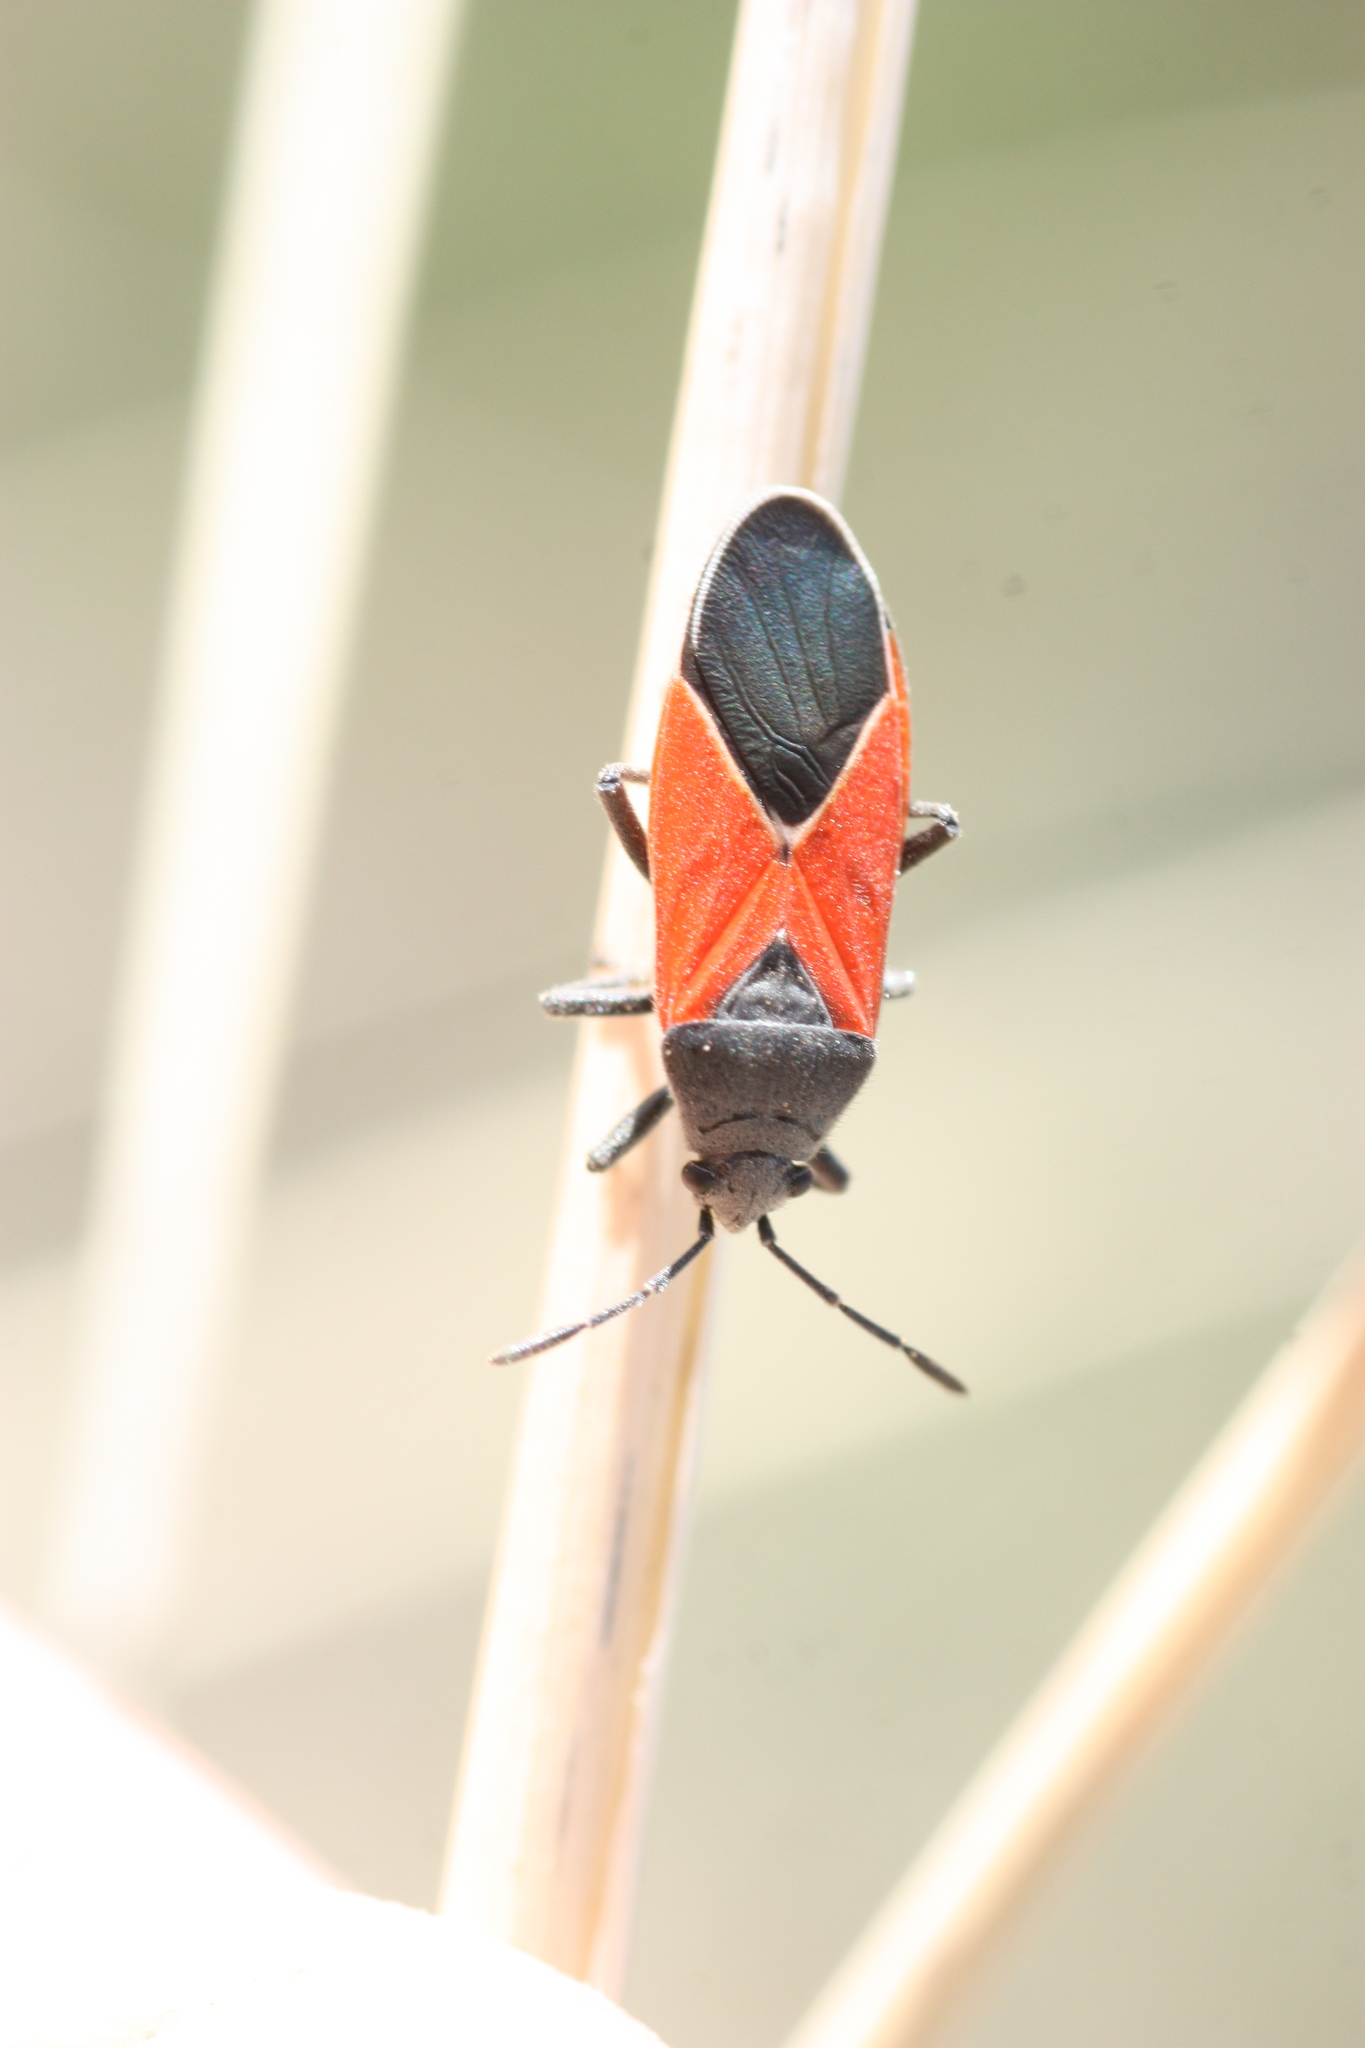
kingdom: Animalia
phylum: Arthropoda
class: Insecta
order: Hemiptera
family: Lygaeidae
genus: Melanopleurus
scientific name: Melanopleurus belfragei
